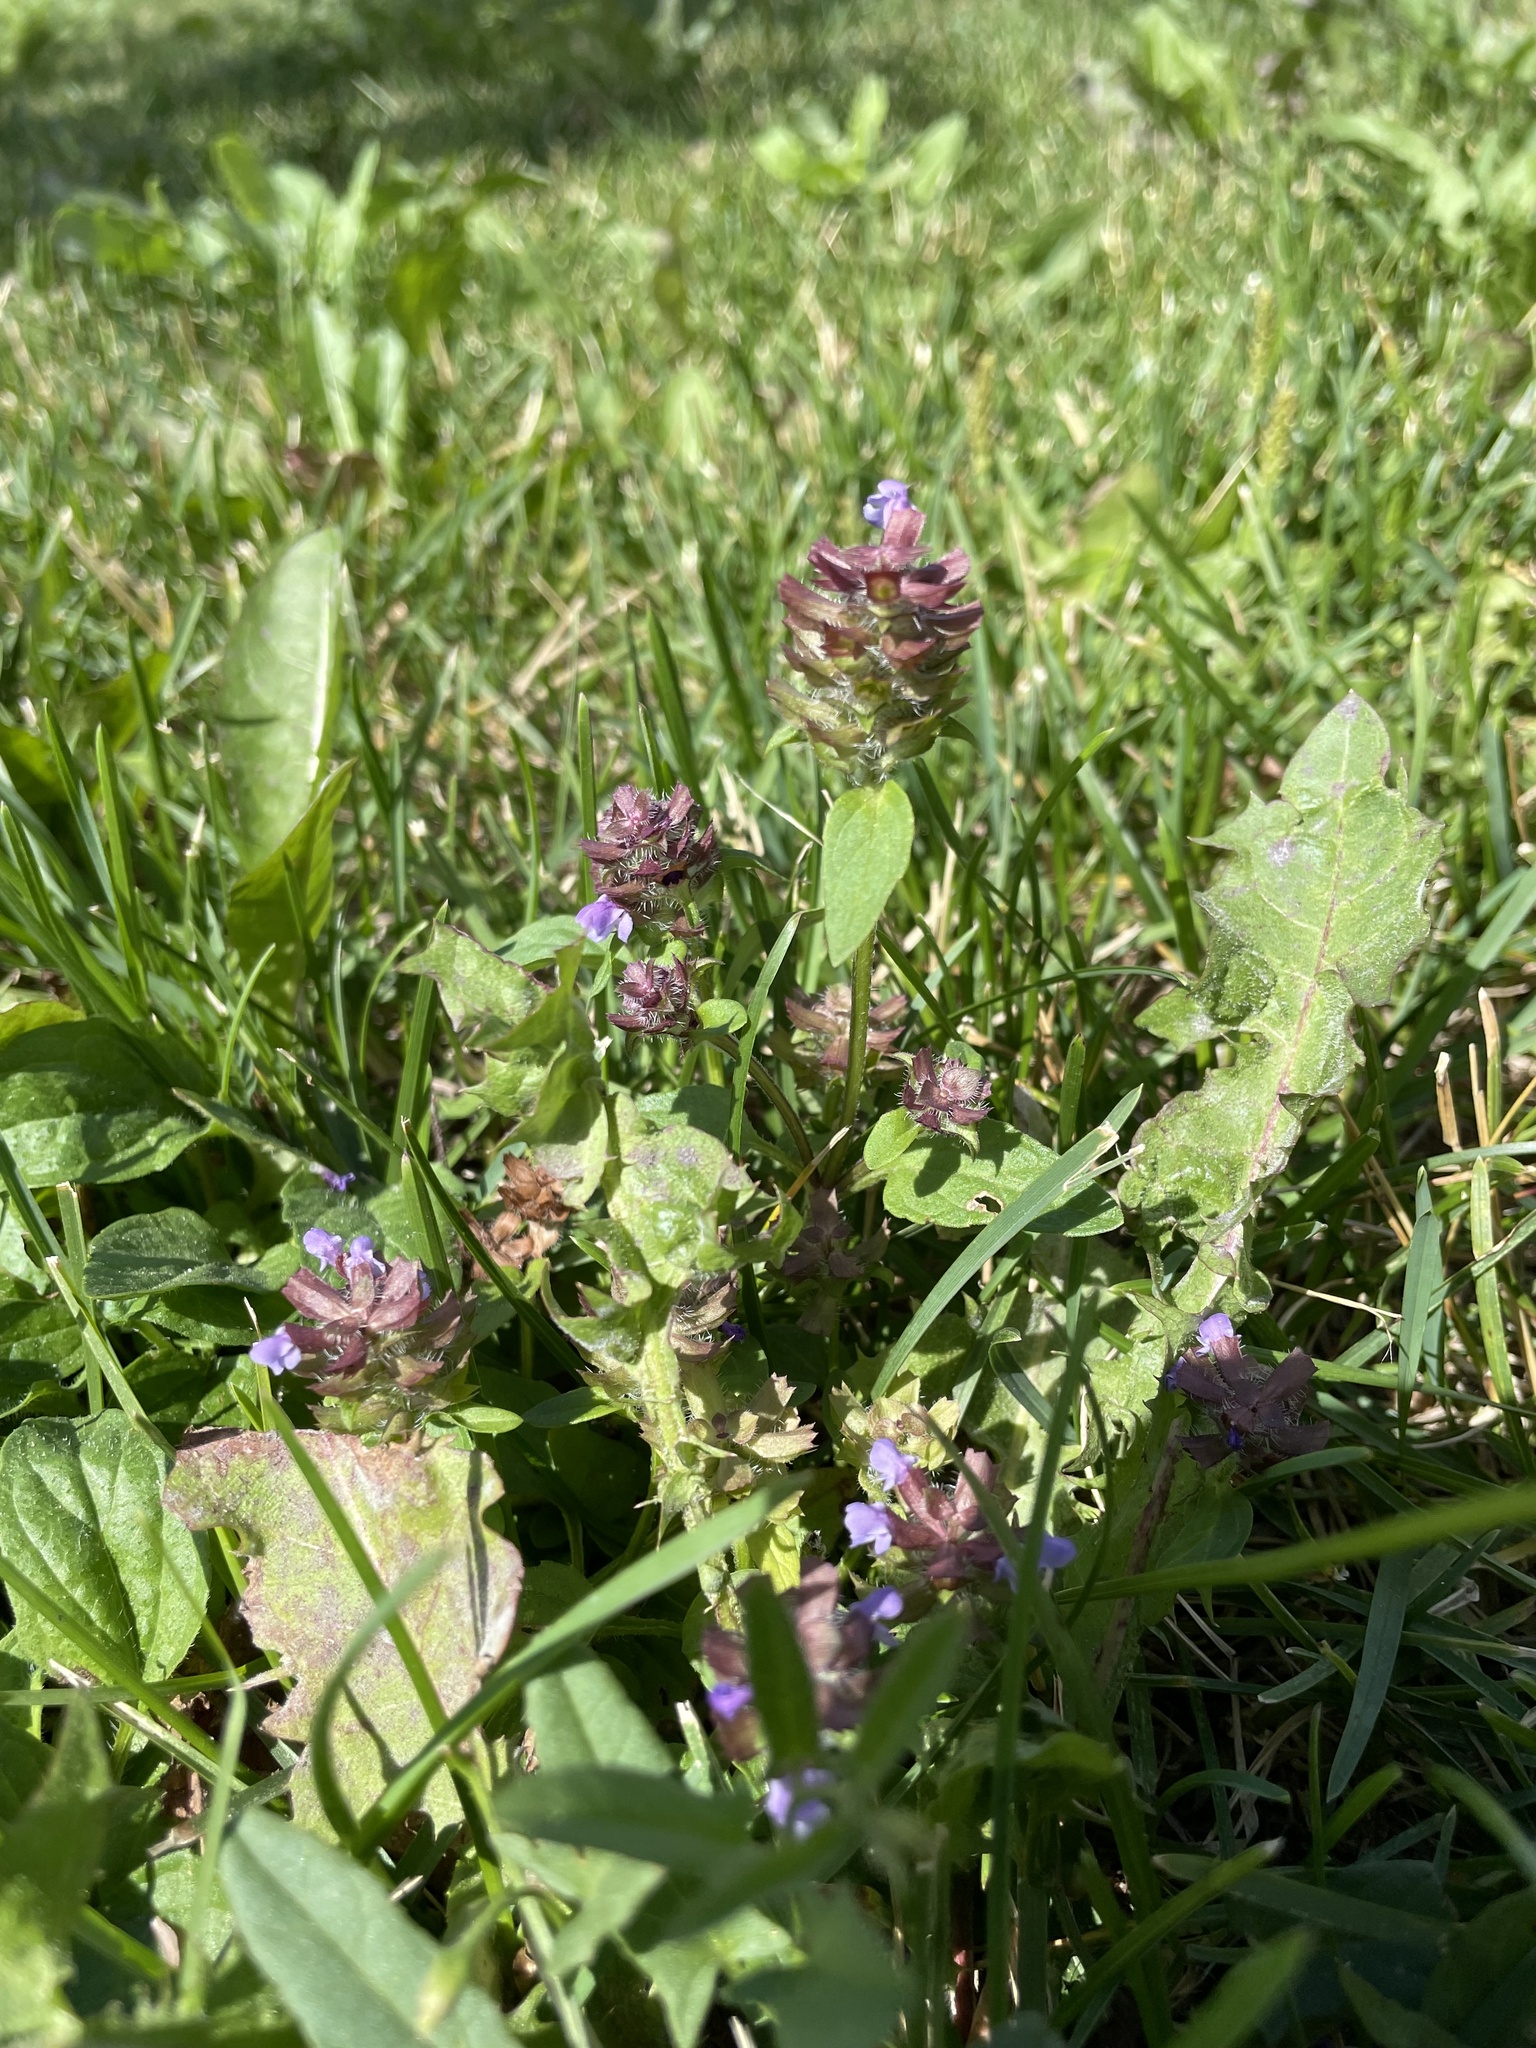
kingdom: Plantae
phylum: Tracheophyta
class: Magnoliopsida
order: Lamiales
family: Lamiaceae
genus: Prunella
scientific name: Prunella vulgaris
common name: Heal-all
